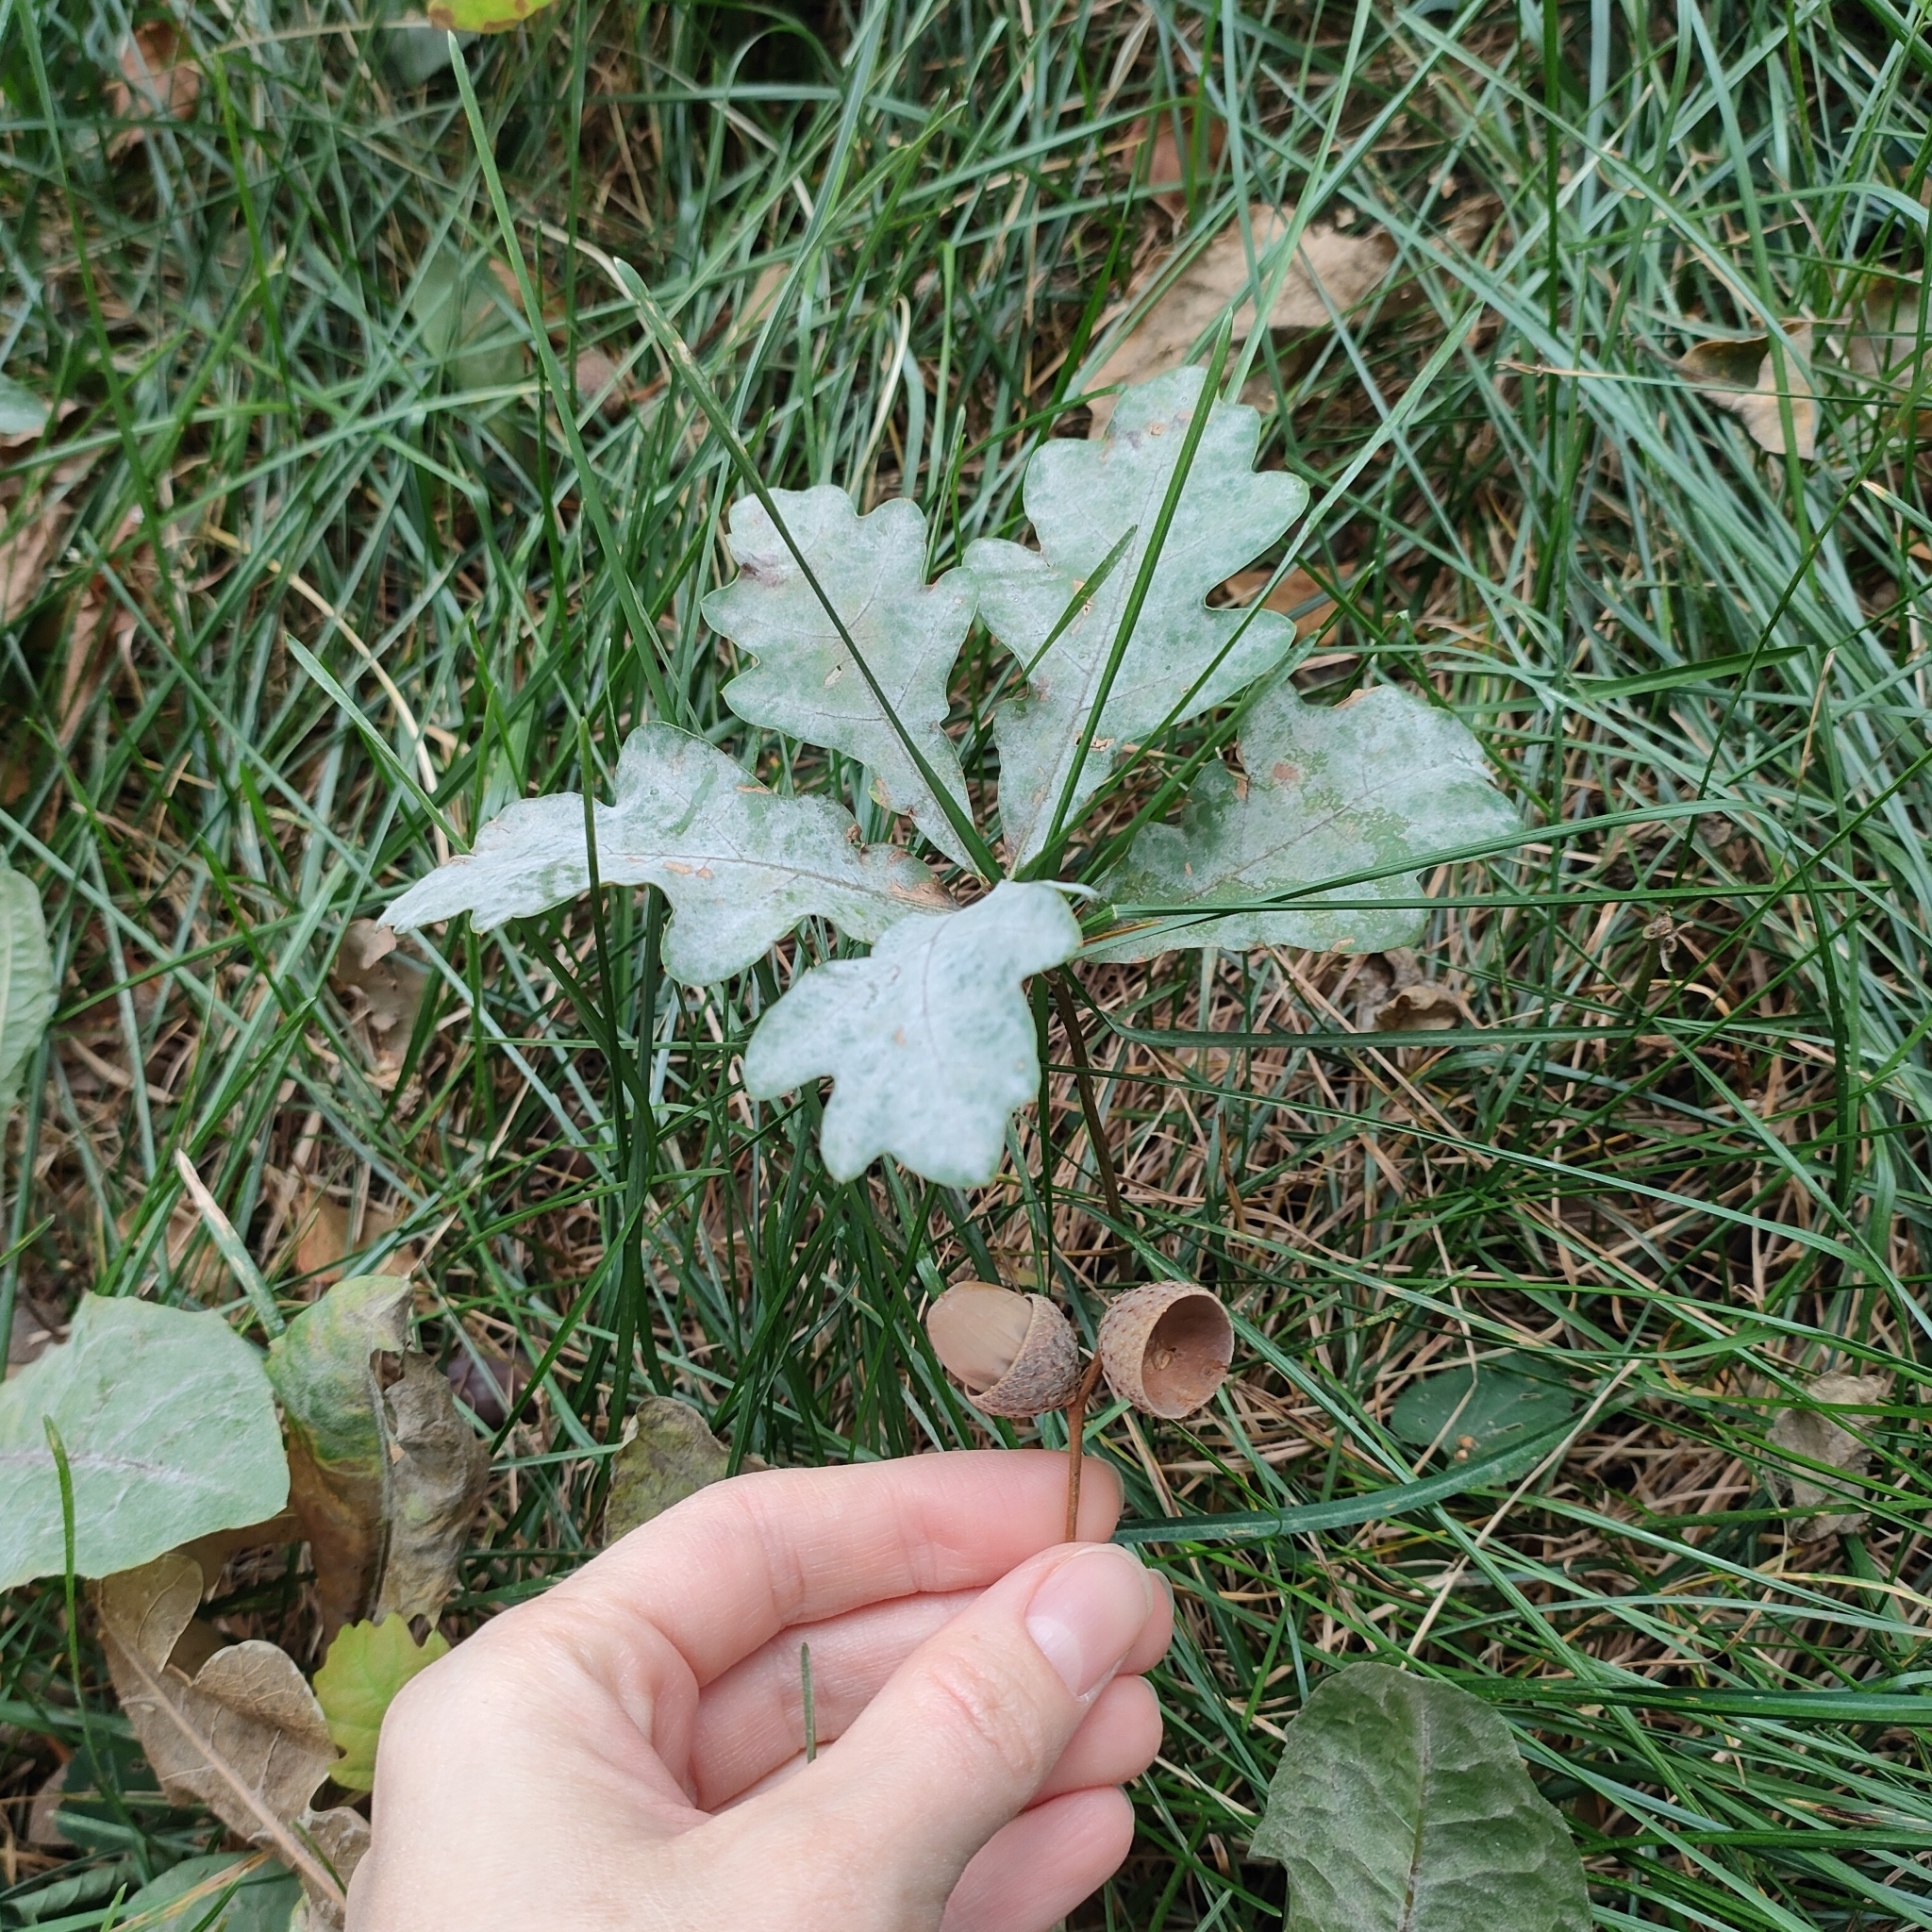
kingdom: Plantae
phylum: Tracheophyta
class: Magnoliopsida
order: Fagales
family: Fagaceae
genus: Quercus
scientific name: Quercus robur
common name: Pedunculate oak
